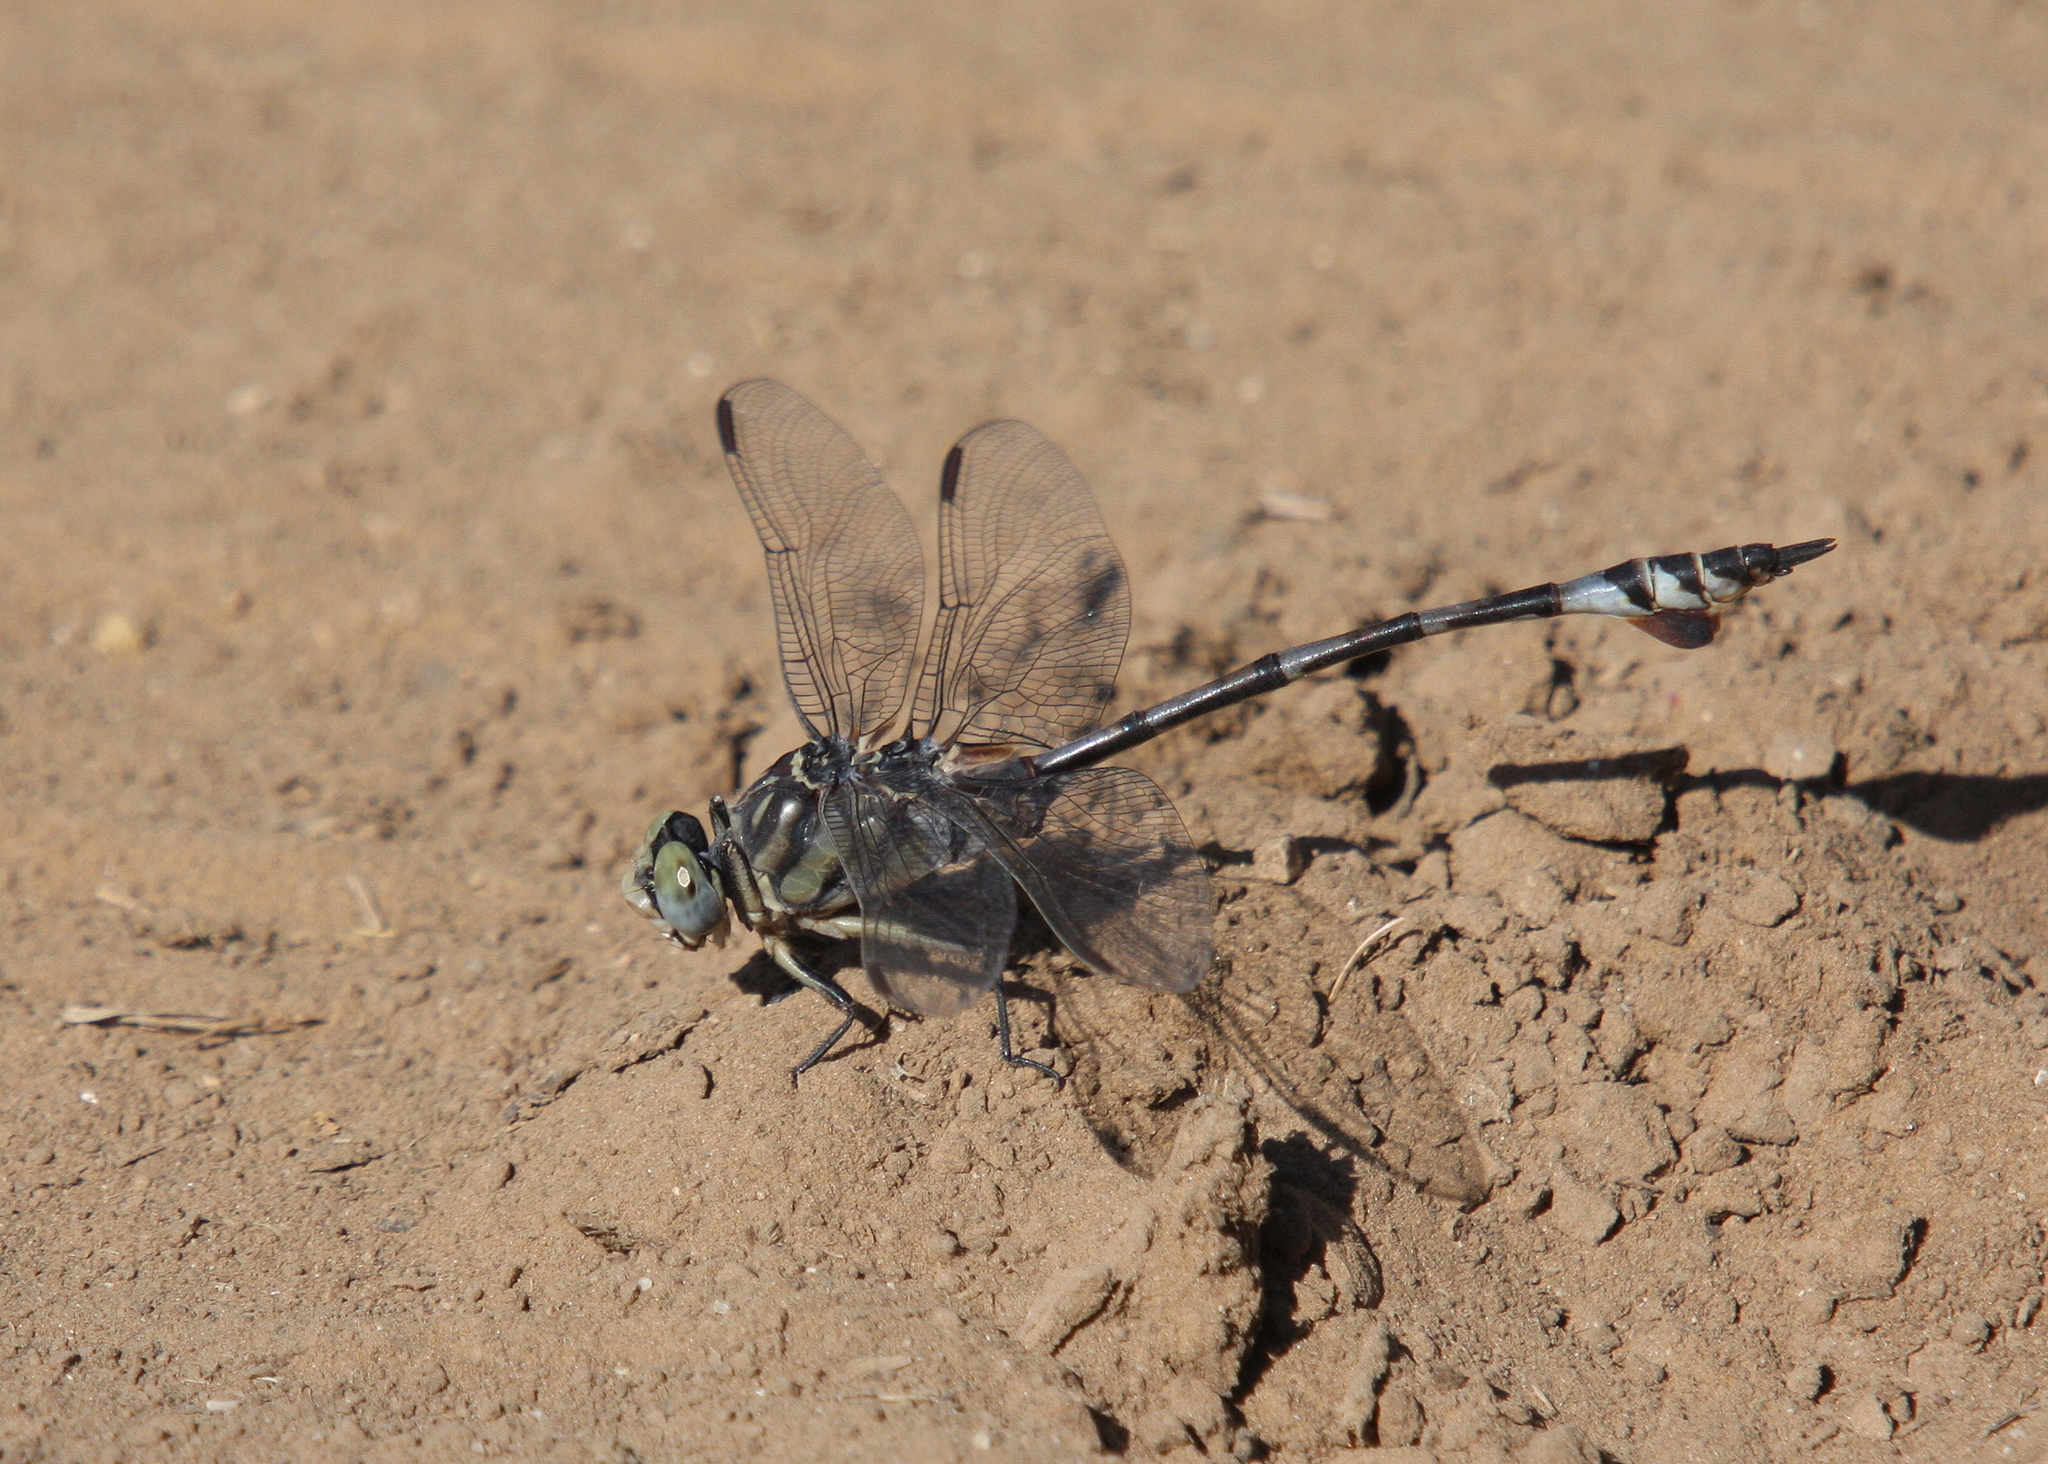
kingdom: Animalia
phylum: Arthropoda
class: Insecta
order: Odonata
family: Gomphidae
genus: Lindenia
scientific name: Lindenia tetraphylla
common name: Bladetail
